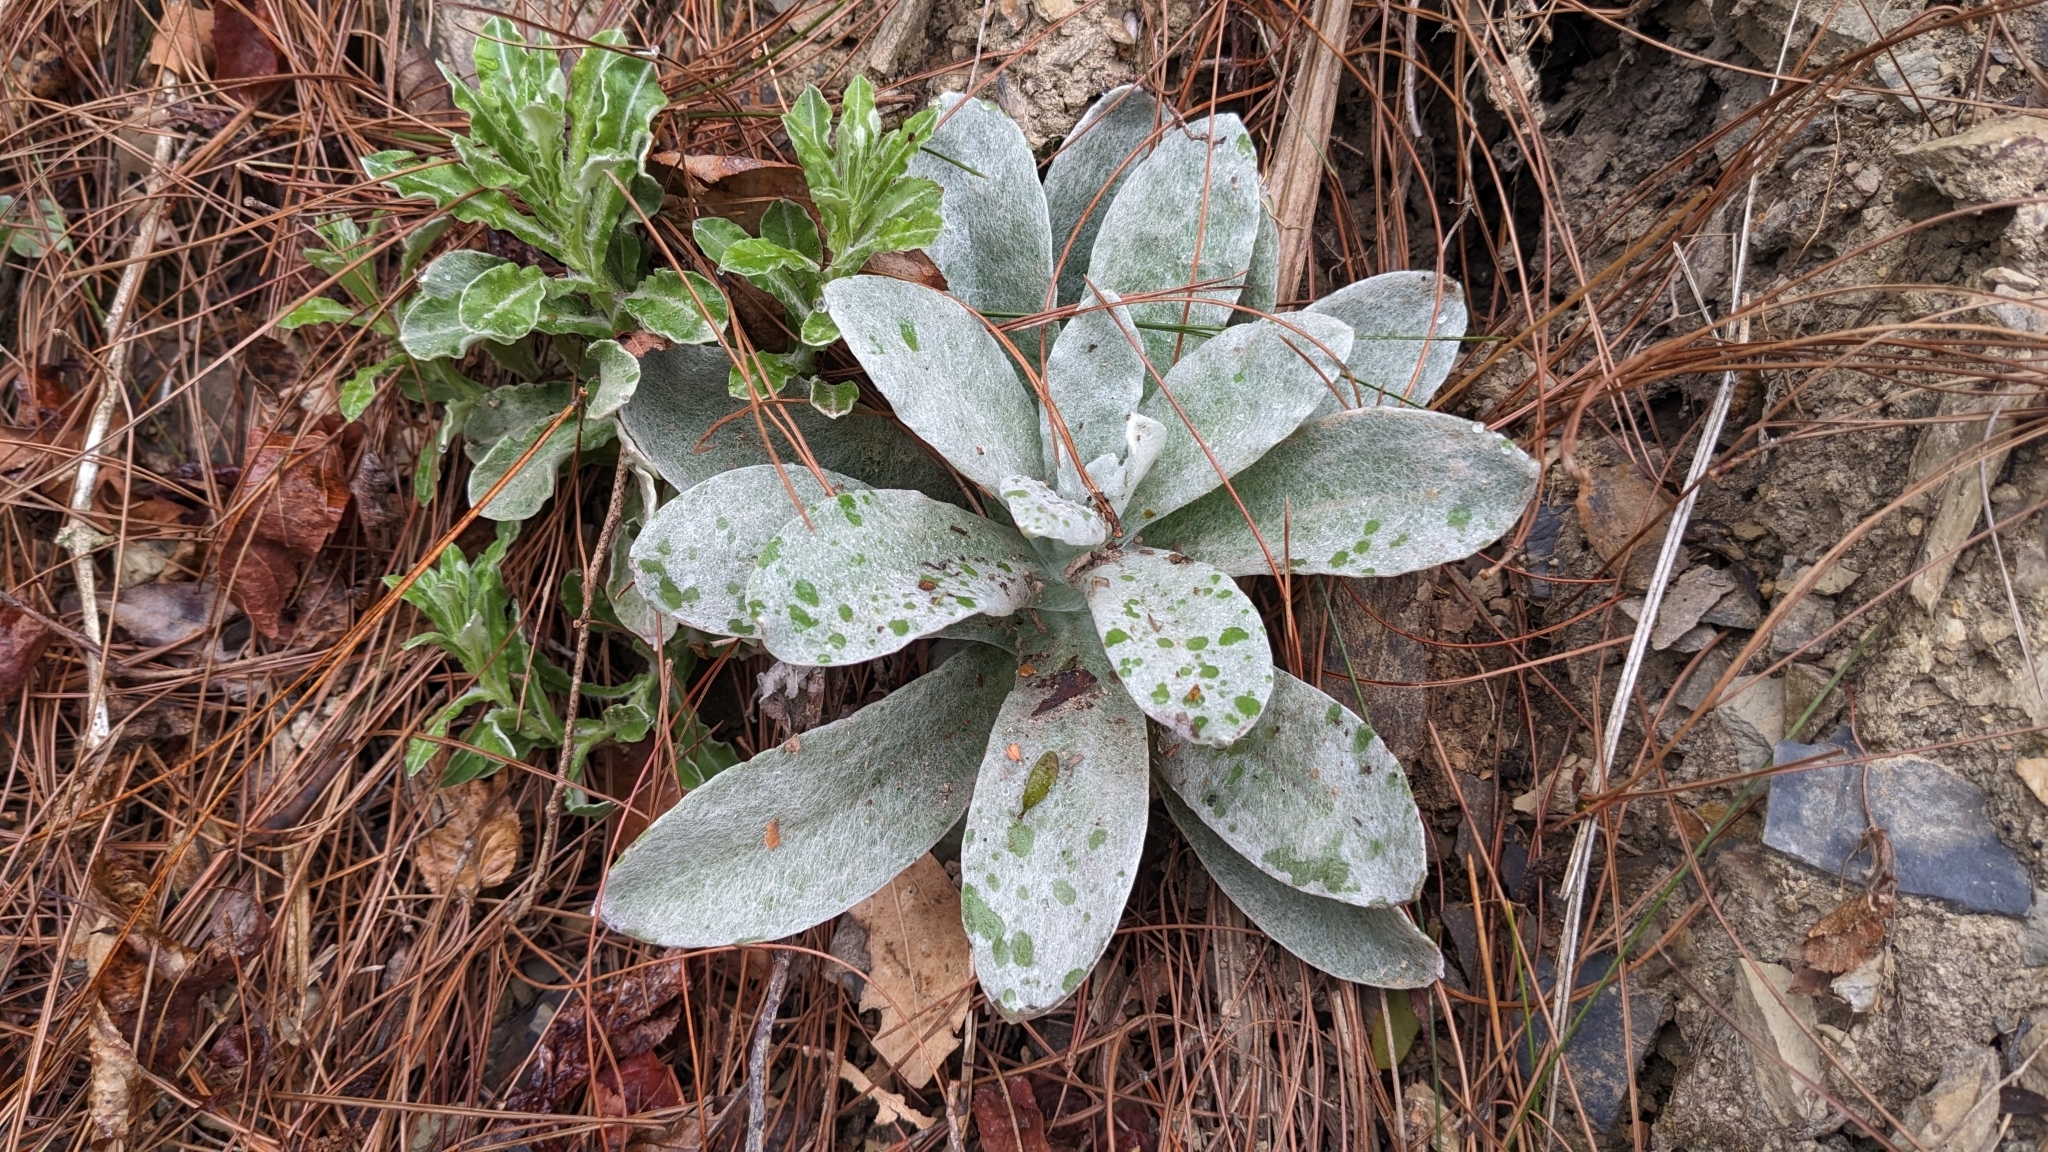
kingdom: Plantae
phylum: Tracheophyta
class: Magnoliopsida
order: Asterales
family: Asteraceae
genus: Pseudognaphalium
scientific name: Pseudognaphalium adnatum
